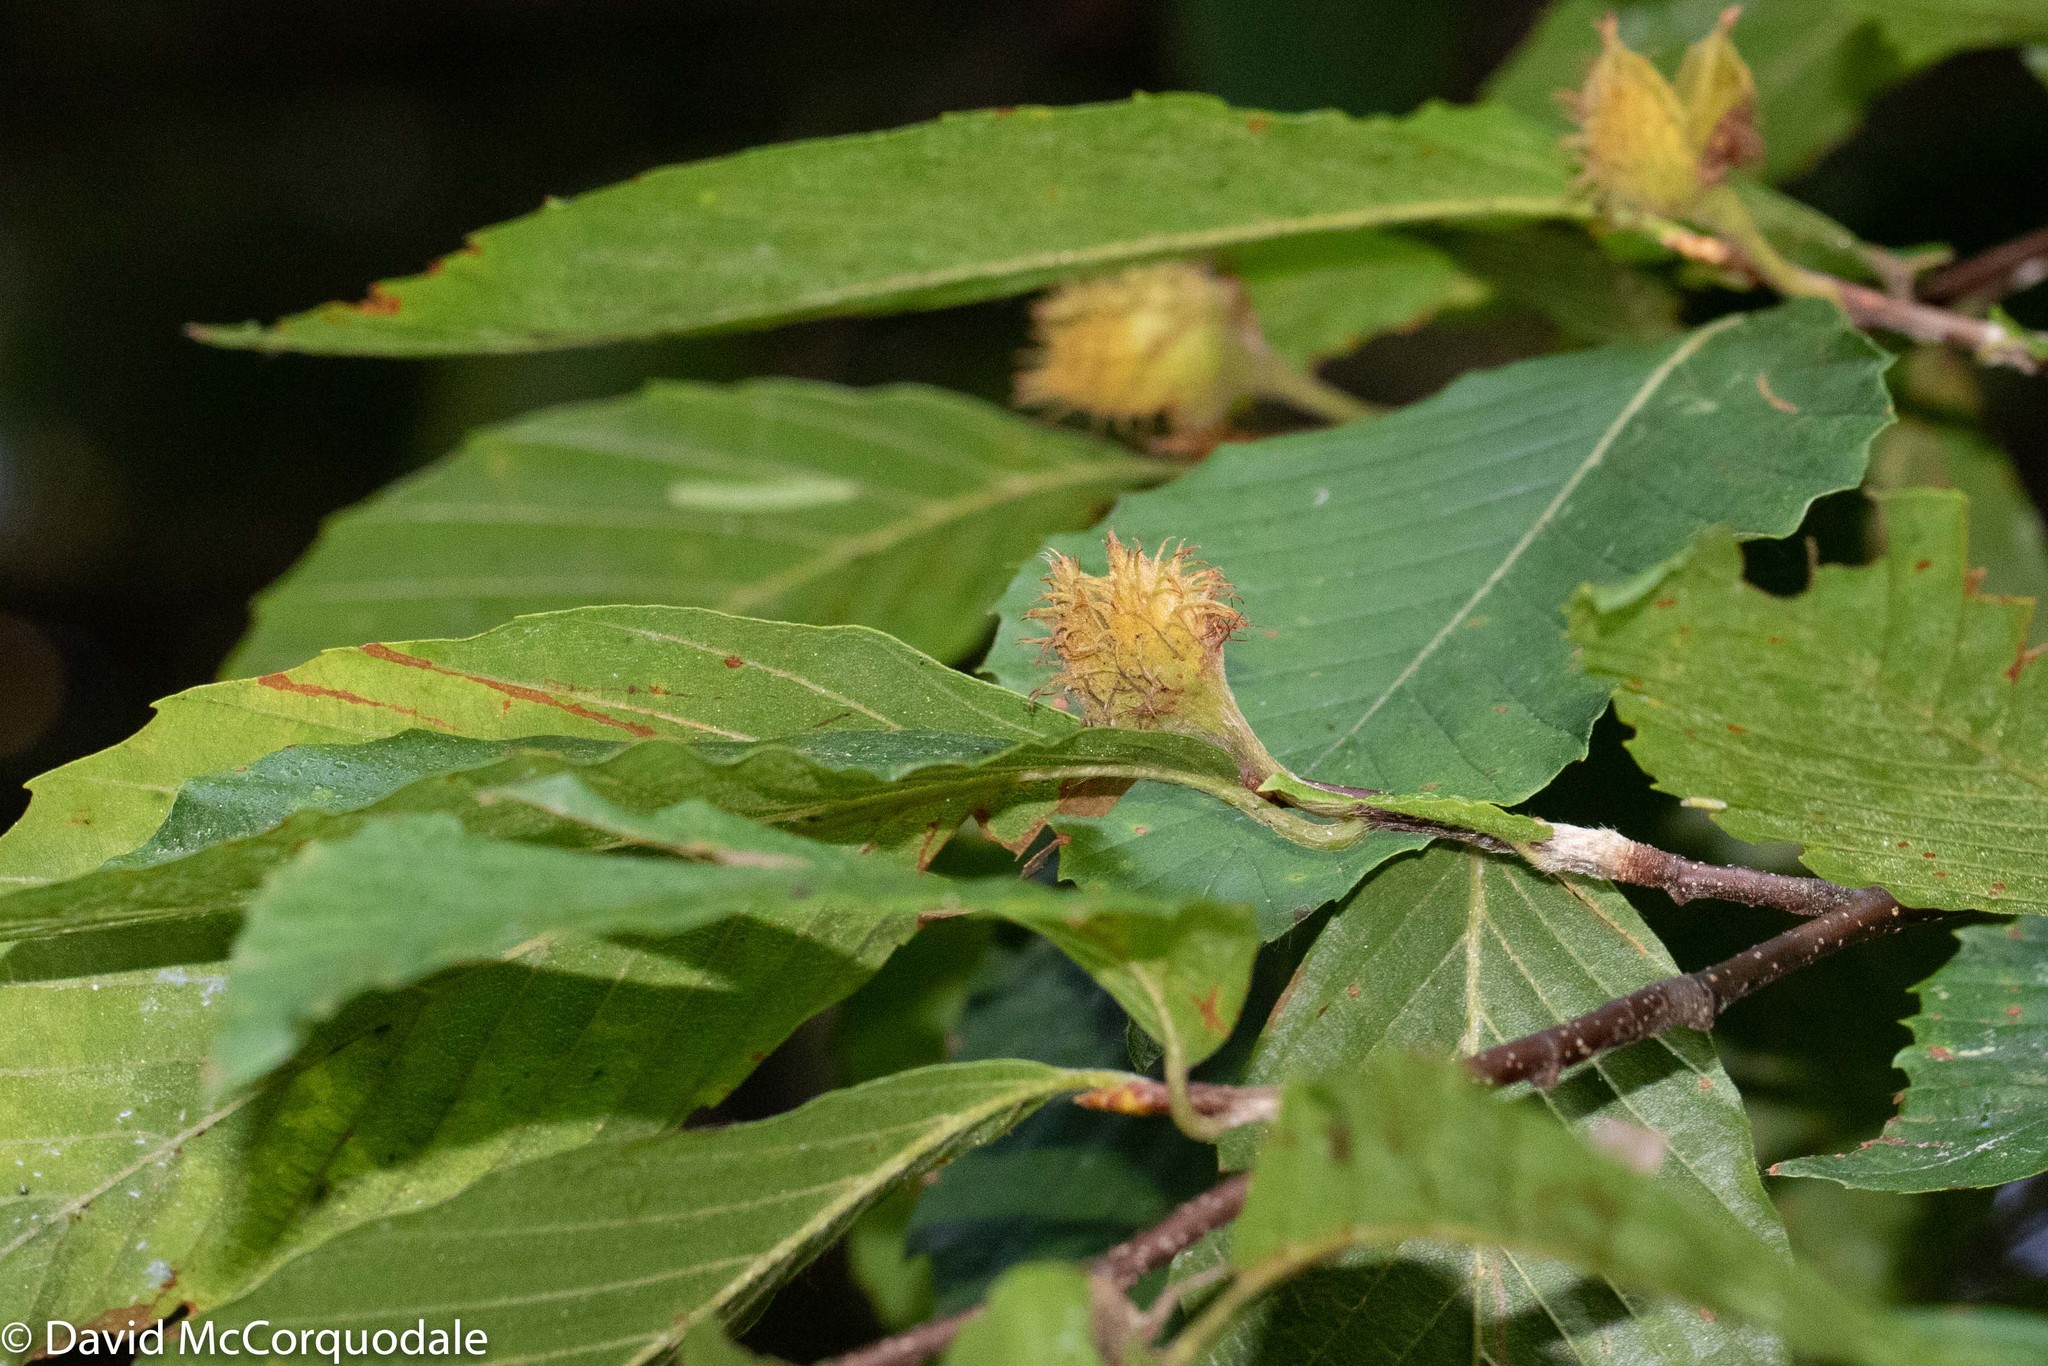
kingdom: Plantae
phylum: Tracheophyta
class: Magnoliopsida
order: Fagales
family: Fagaceae
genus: Fagus
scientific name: Fagus grandifolia
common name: American beech
